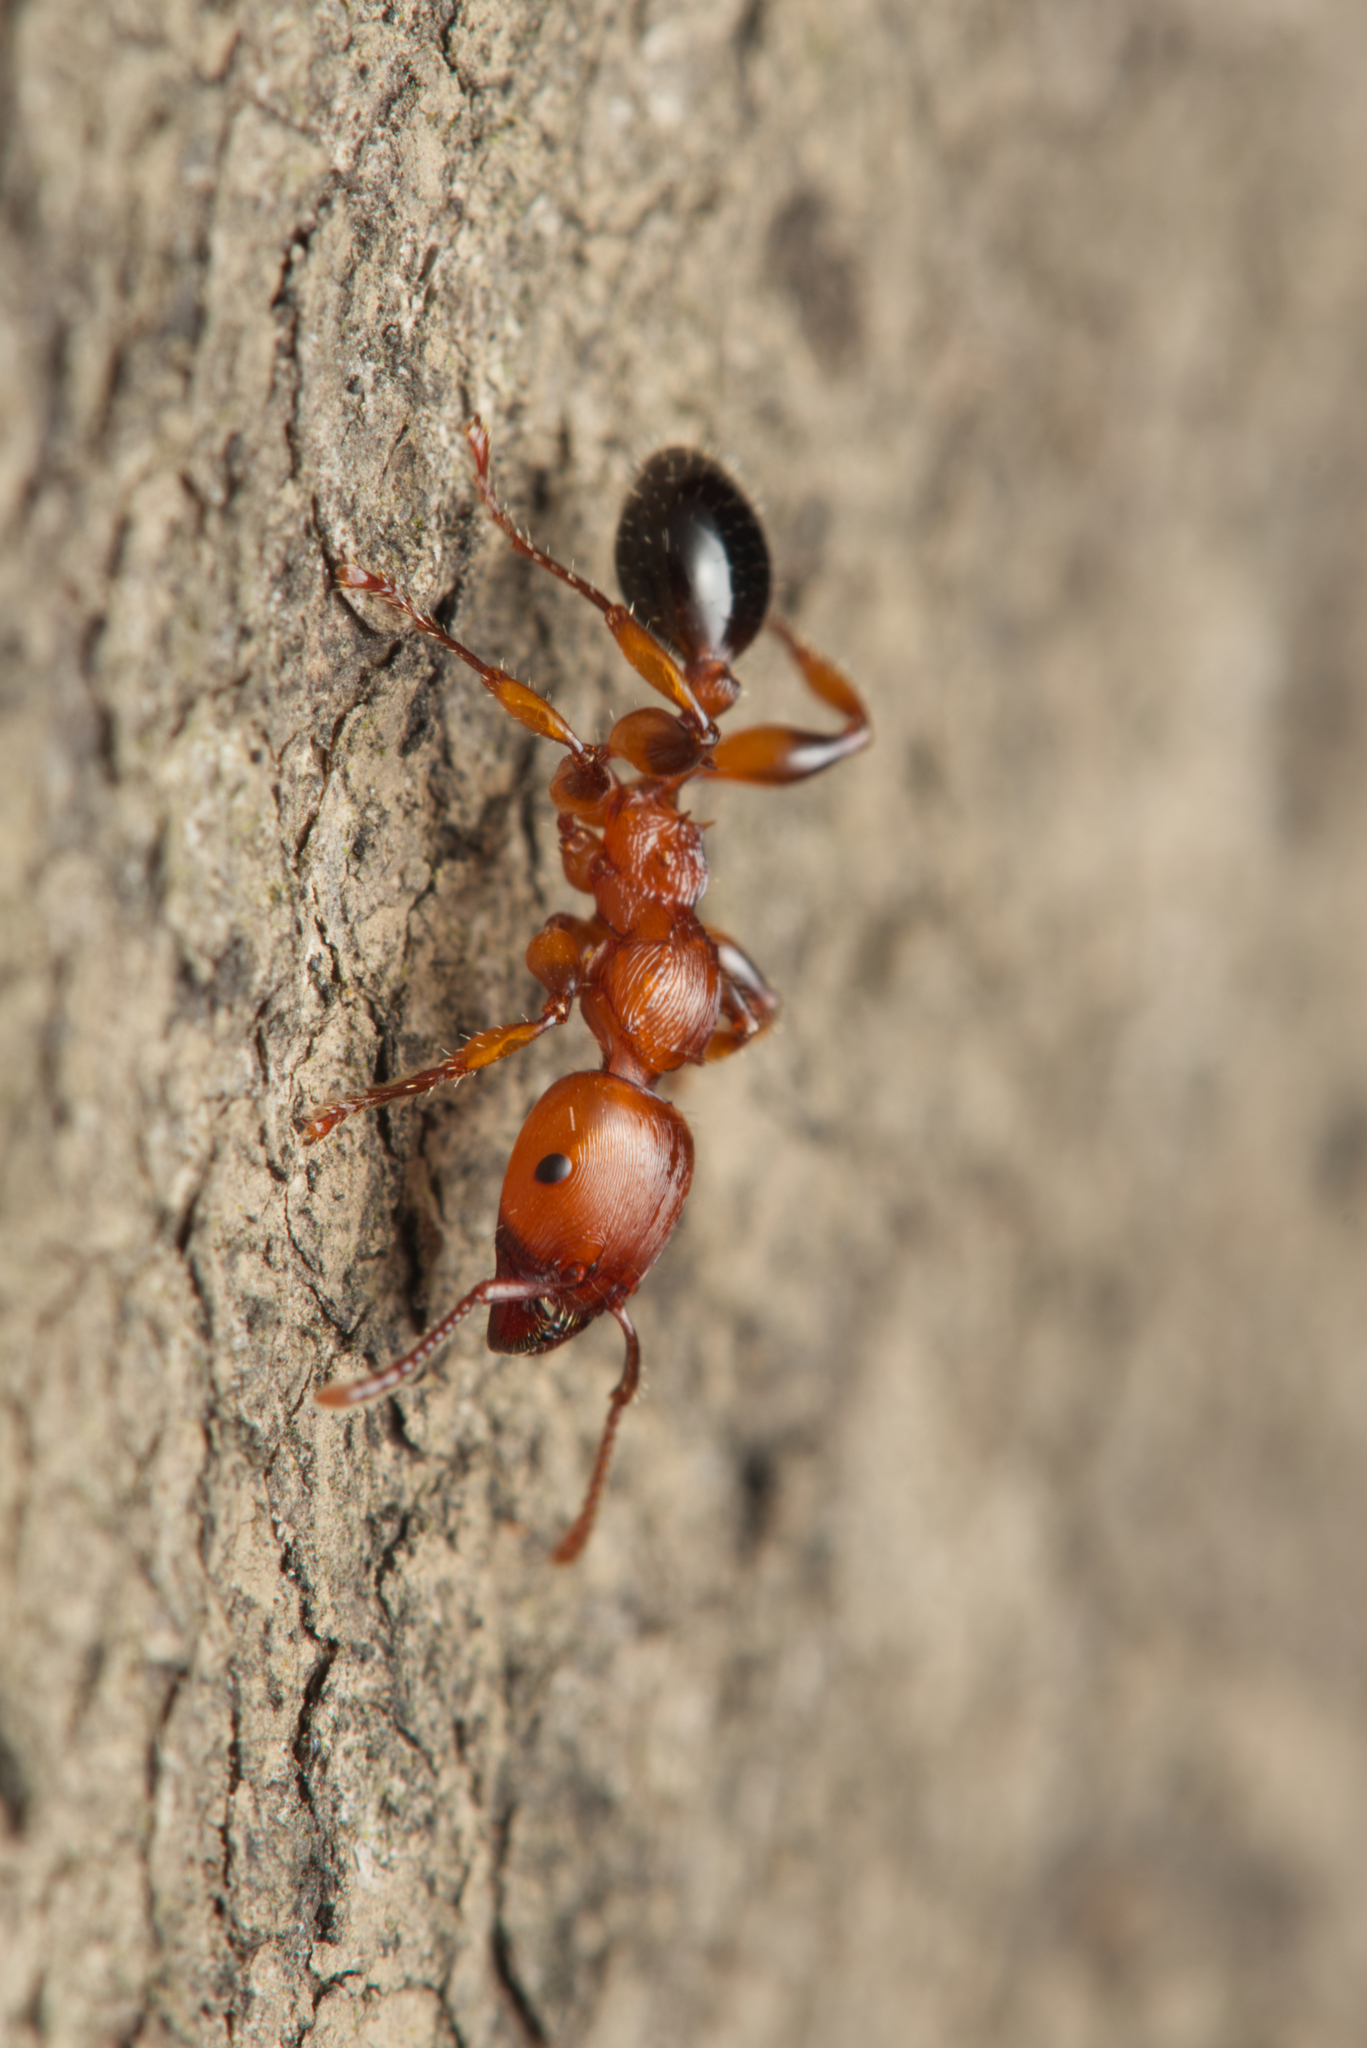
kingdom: Animalia
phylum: Arthropoda
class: Insecta
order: Hymenoptera
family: Formicidae
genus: Podomyrma
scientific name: Podomyrma gratiosa
